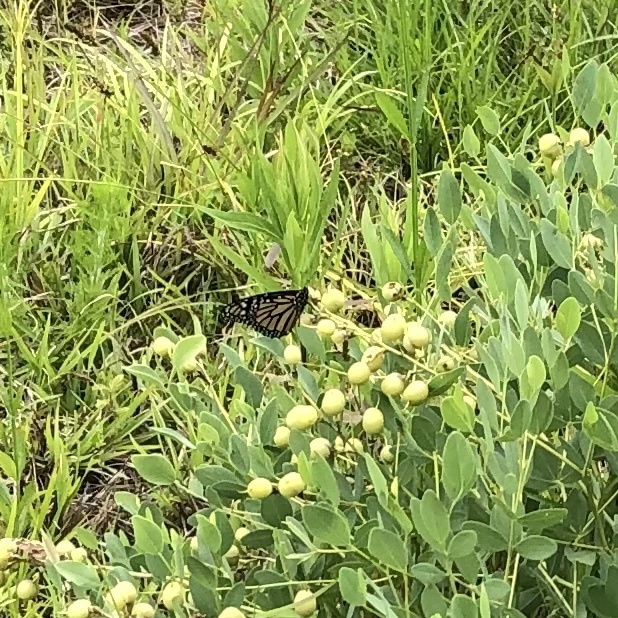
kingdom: Animalia
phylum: Arthropoda
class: Insecta
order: Lepidoptera
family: Nymphalidae
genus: Danaus
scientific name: Danaus plexippus
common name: Monarch
